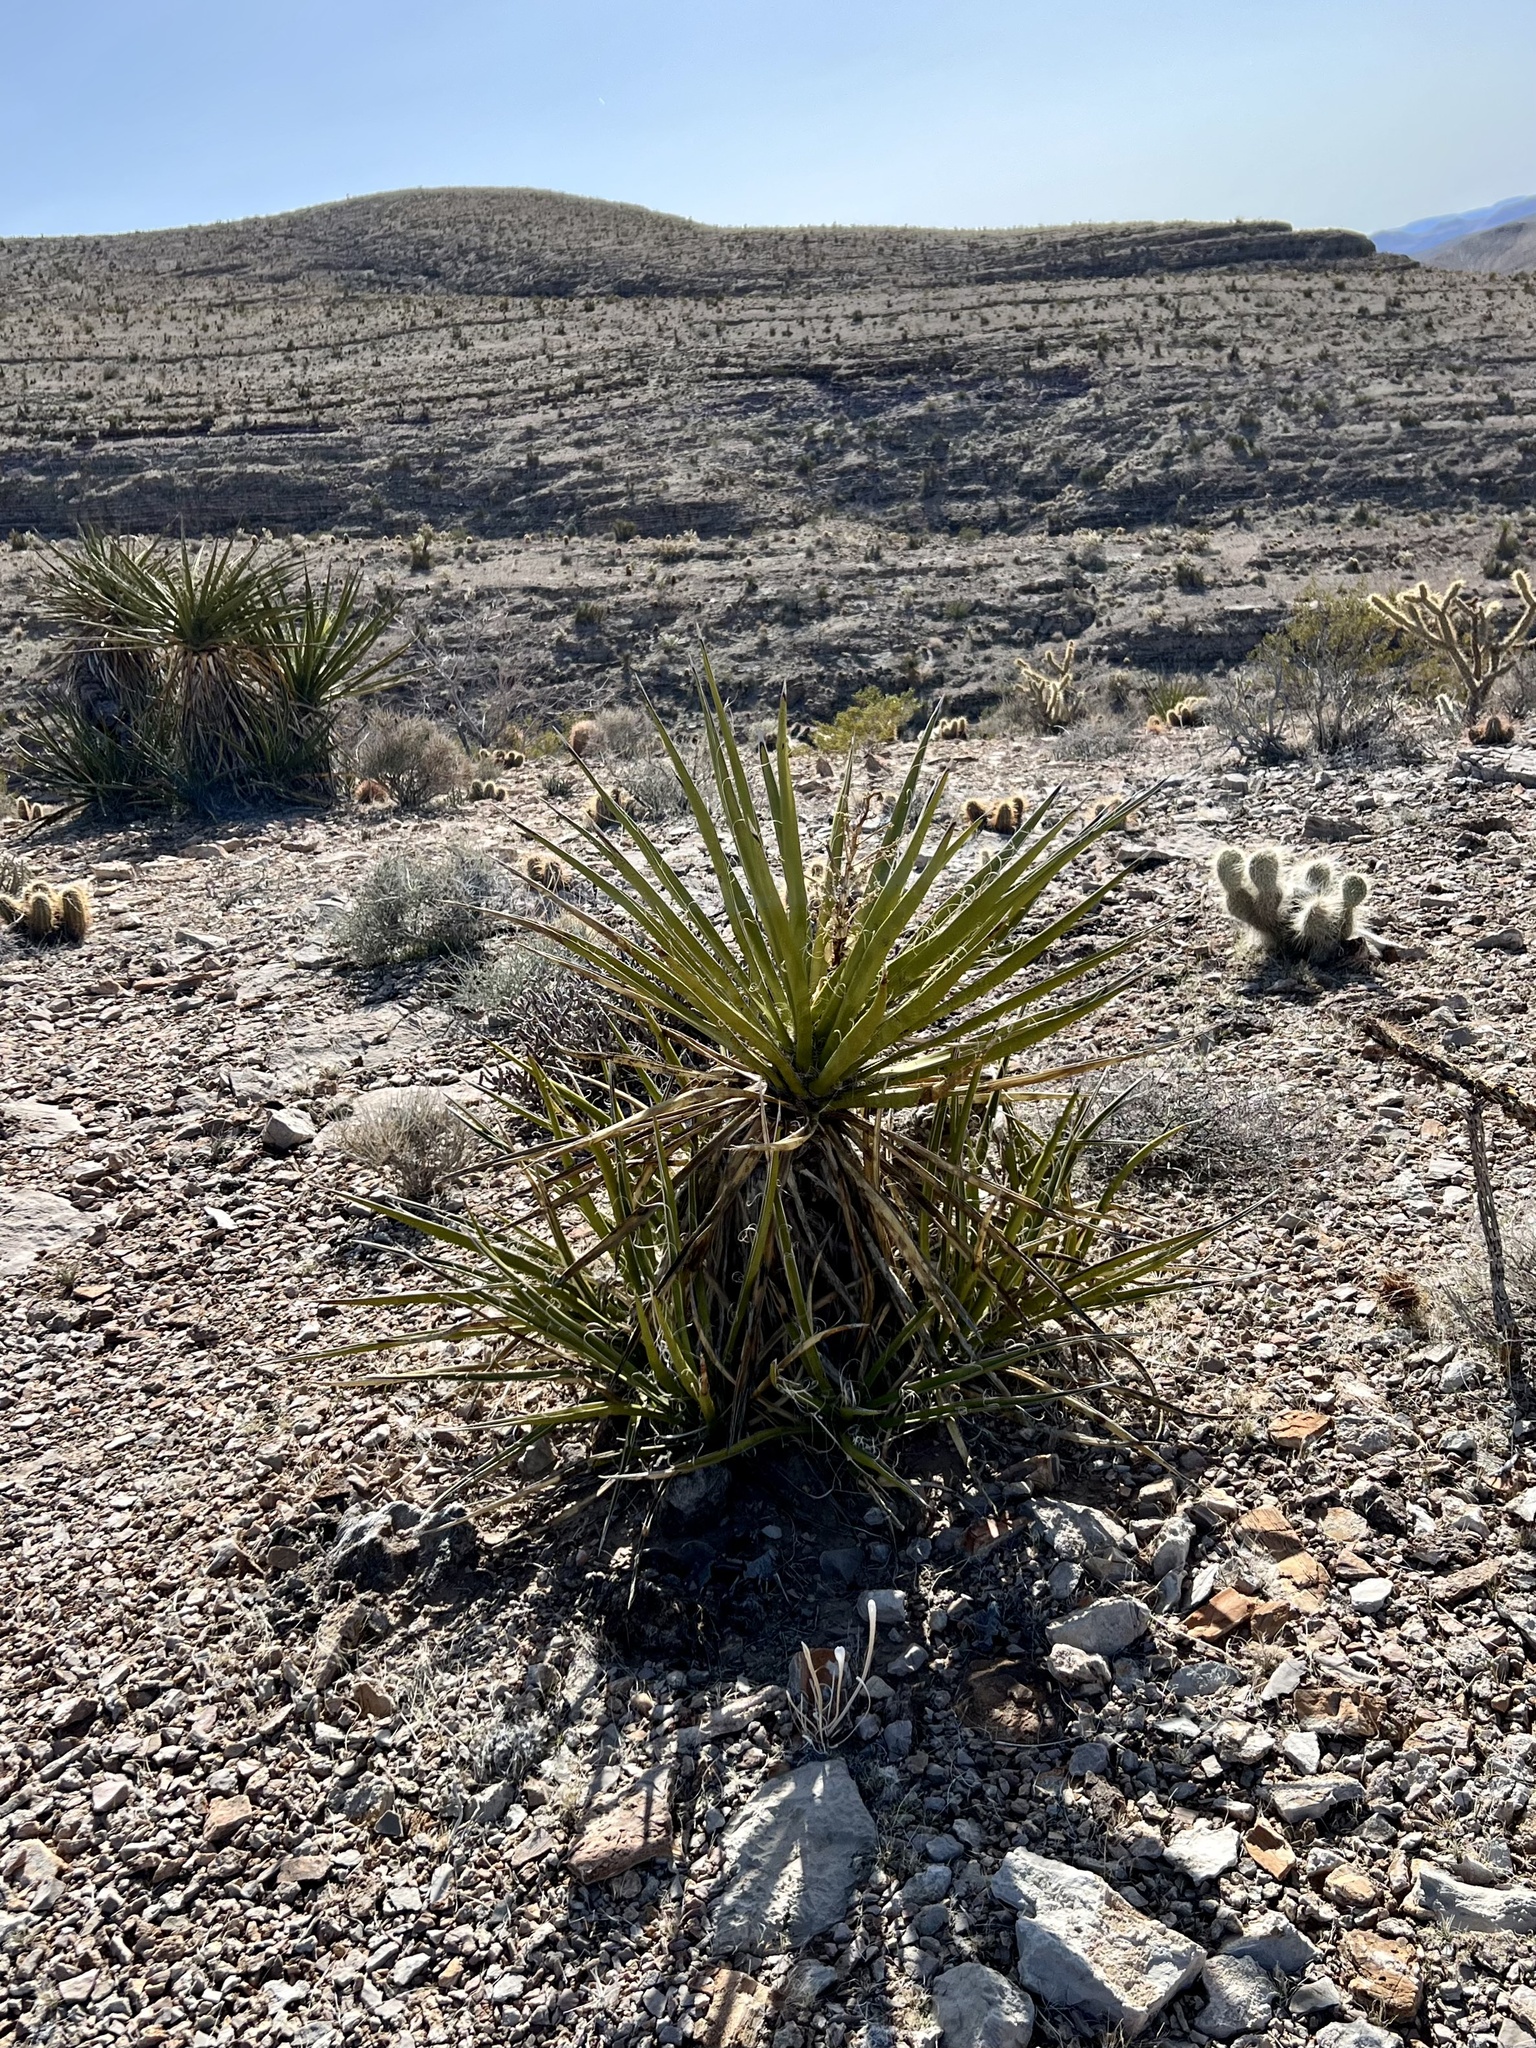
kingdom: Plantae
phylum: Tracheophyta
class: Liliopsida
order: Asparagales
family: Asparagaceae
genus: Yucca
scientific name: Yucca schidigera
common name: Mojave yucca
